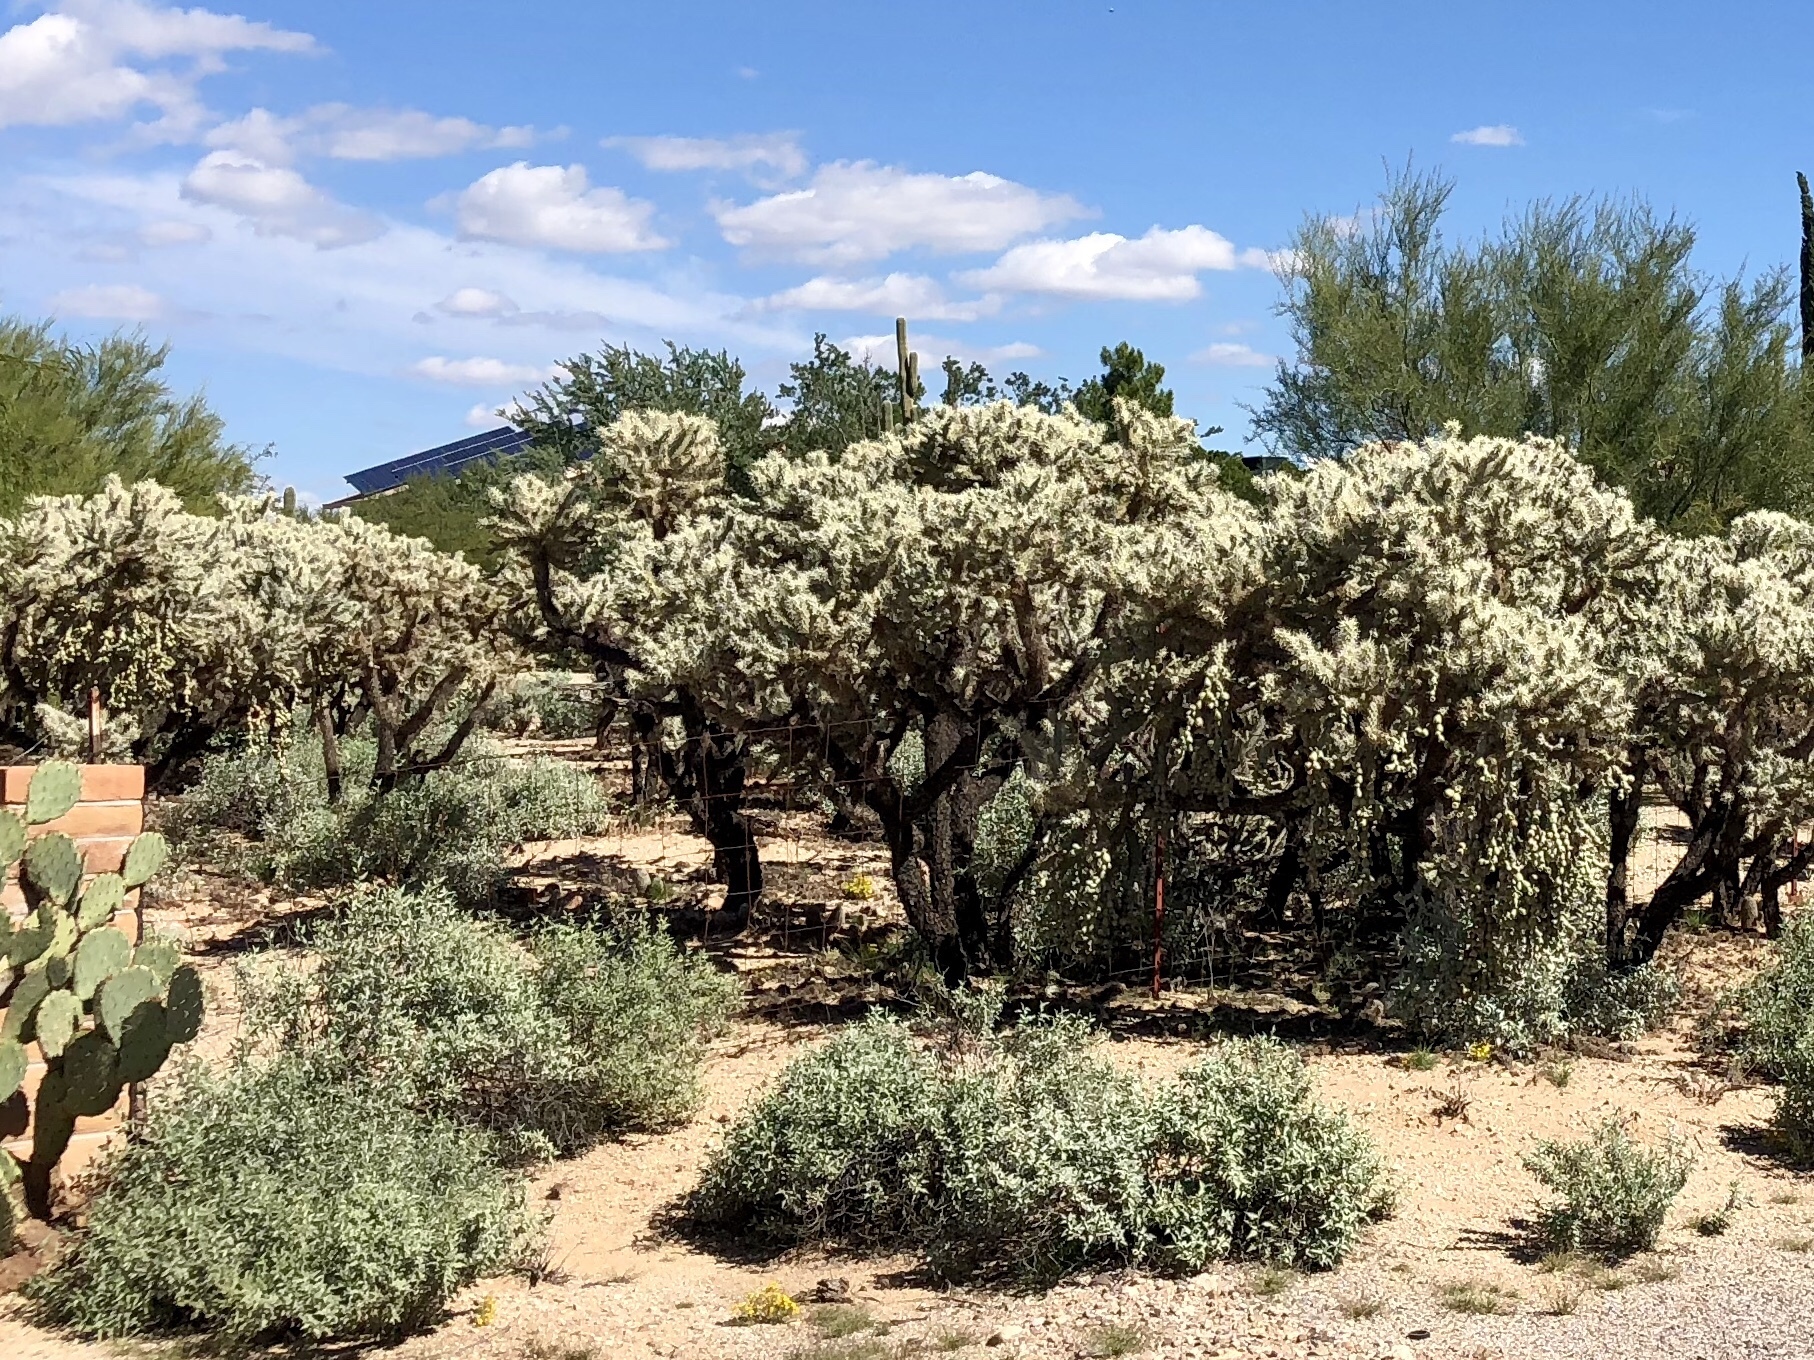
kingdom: Plantae
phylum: Tracheophyta
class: Magnoliopsida
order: Caryophyllales
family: Cactaceae
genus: Cylindropuntia
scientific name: Cylindropuntia fulgida
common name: Jumping cholla
